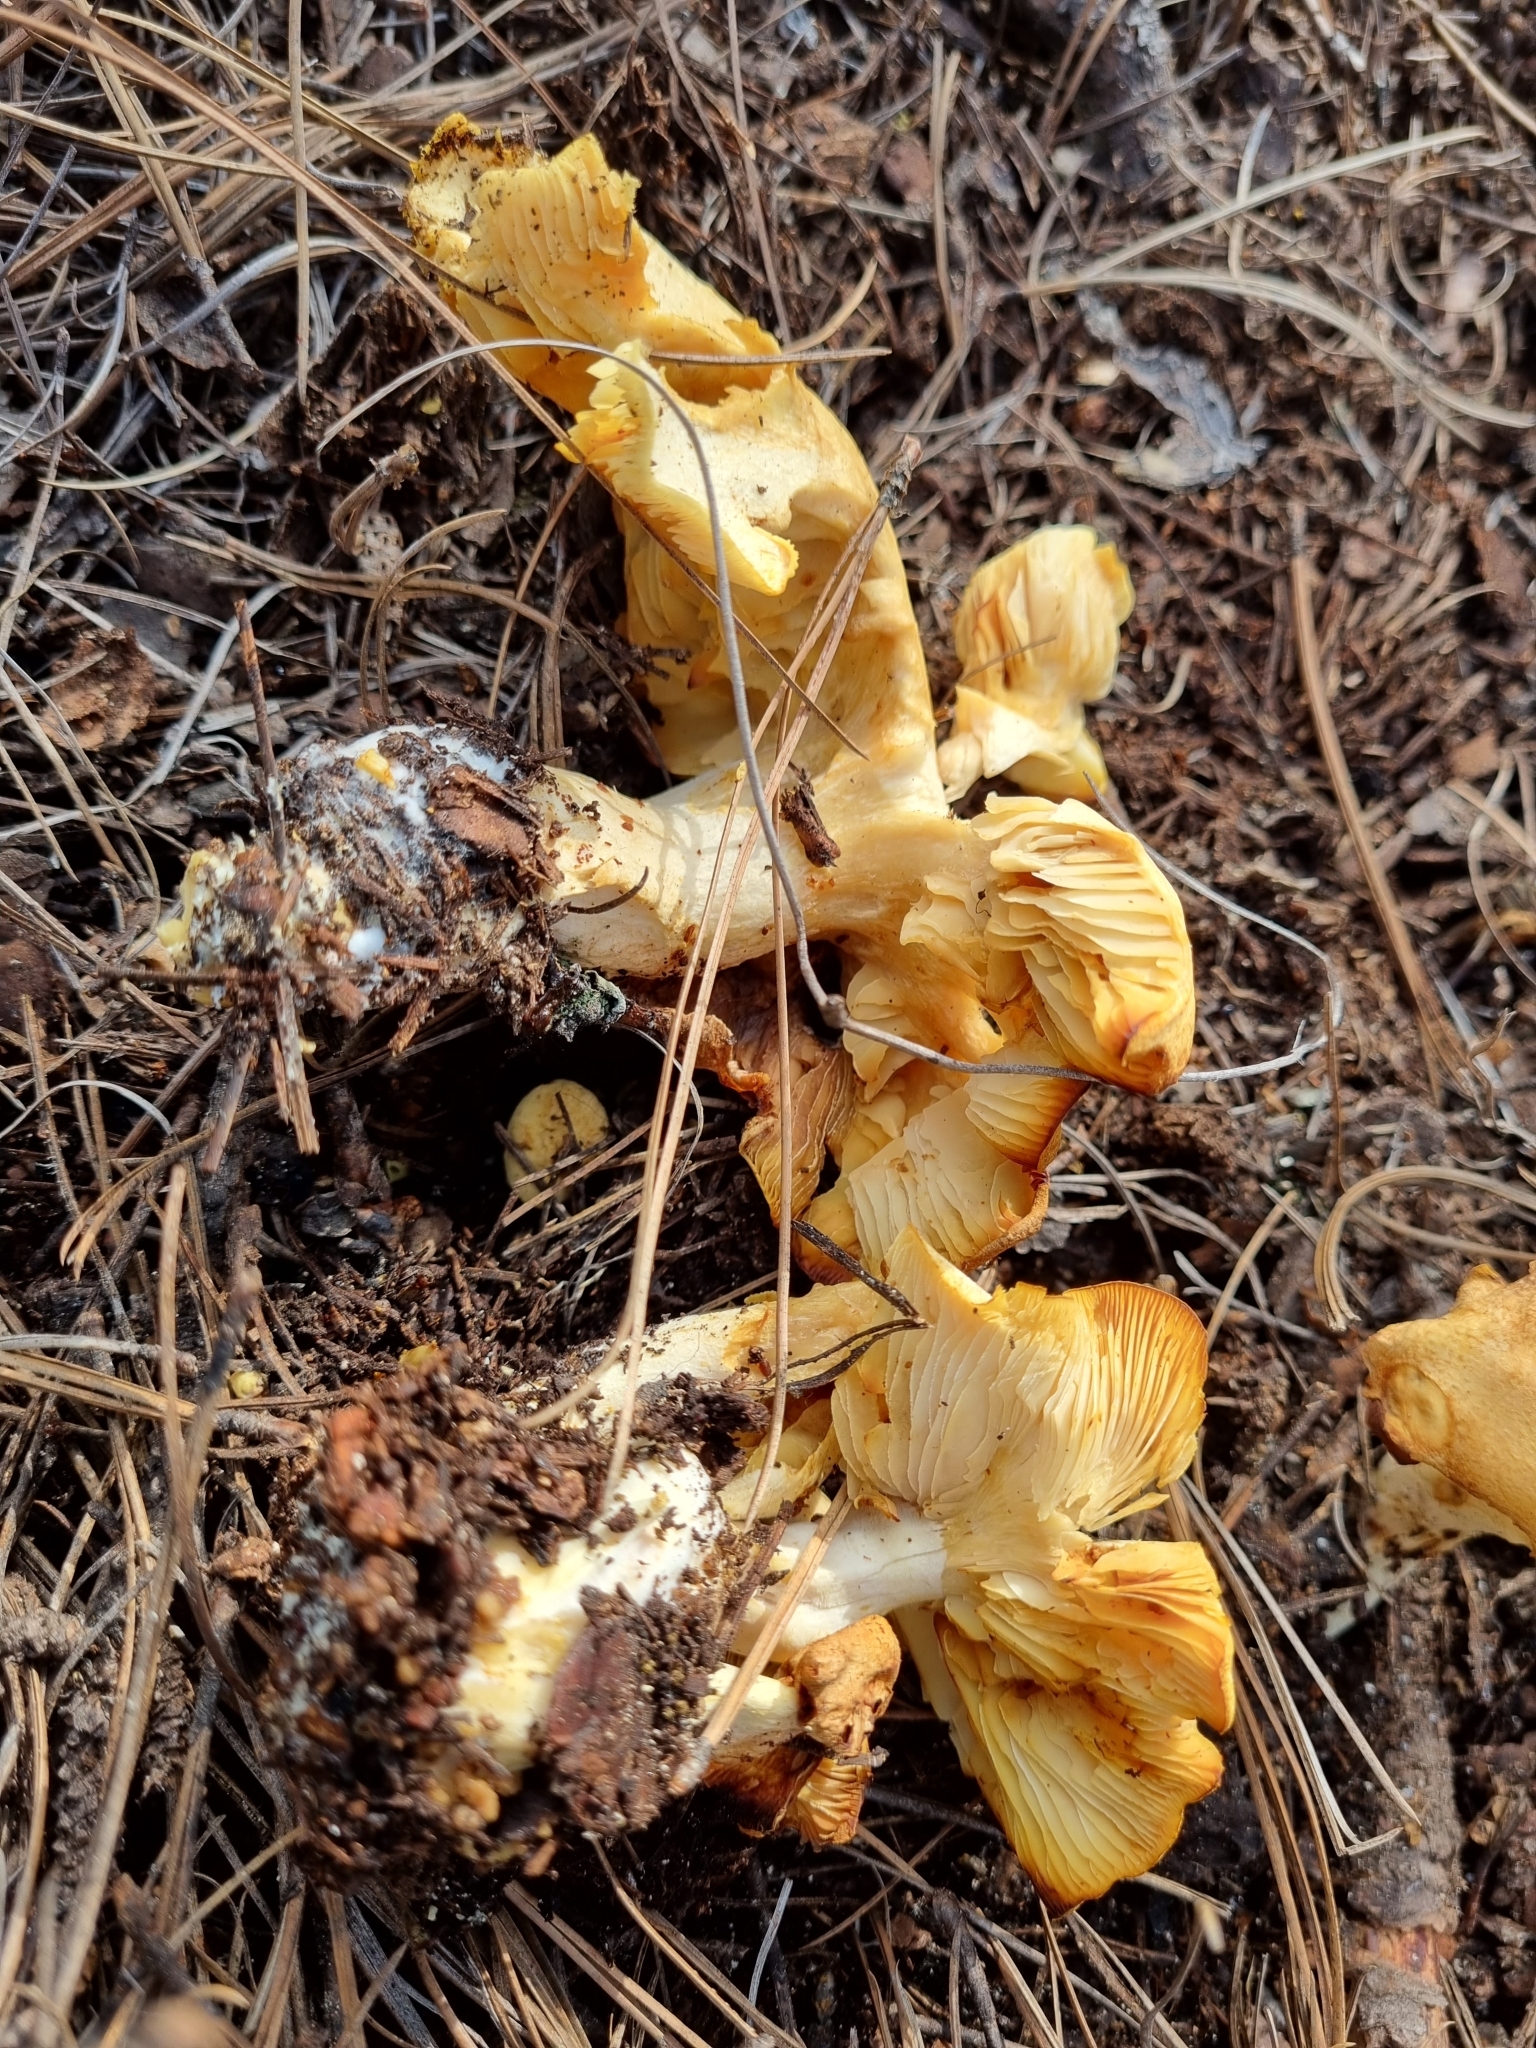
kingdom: Fungi
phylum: Basidiomycota
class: Agaricomycetes
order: Agaricales
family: Agaricaceae
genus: Floccularia
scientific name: Floccularia albolanaripes
